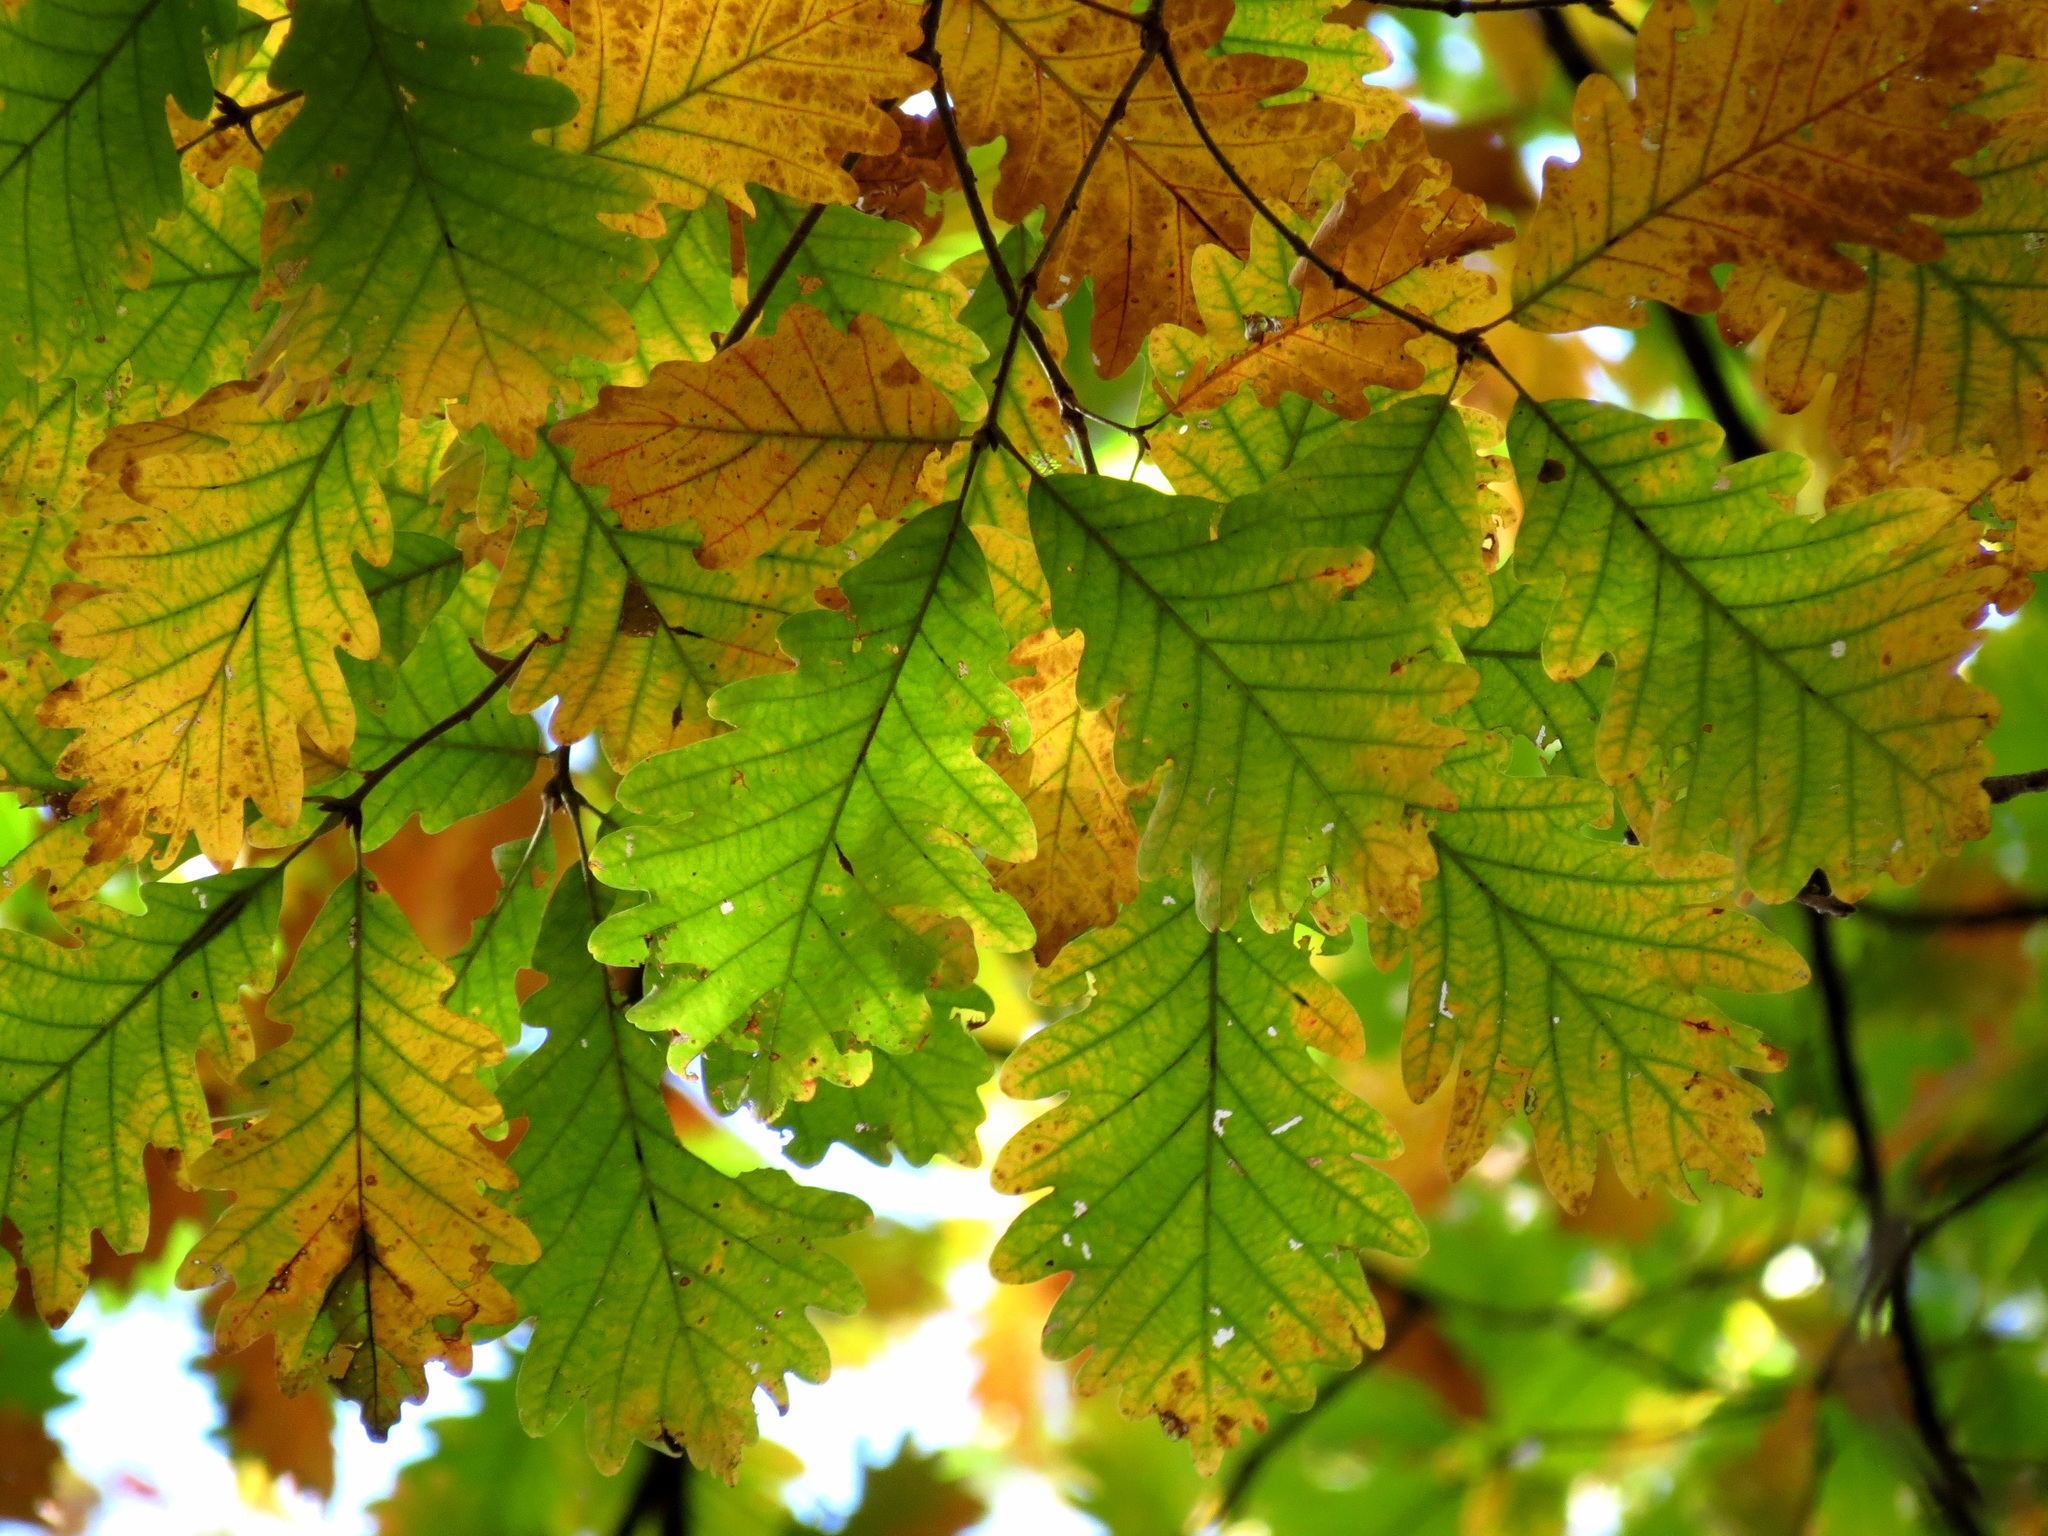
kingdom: Plantae
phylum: Tracheophyta
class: Magnoliopsida
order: Fagales
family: Fagaceae
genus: Quercus
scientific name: Quercus montana
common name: Chestnut oak
